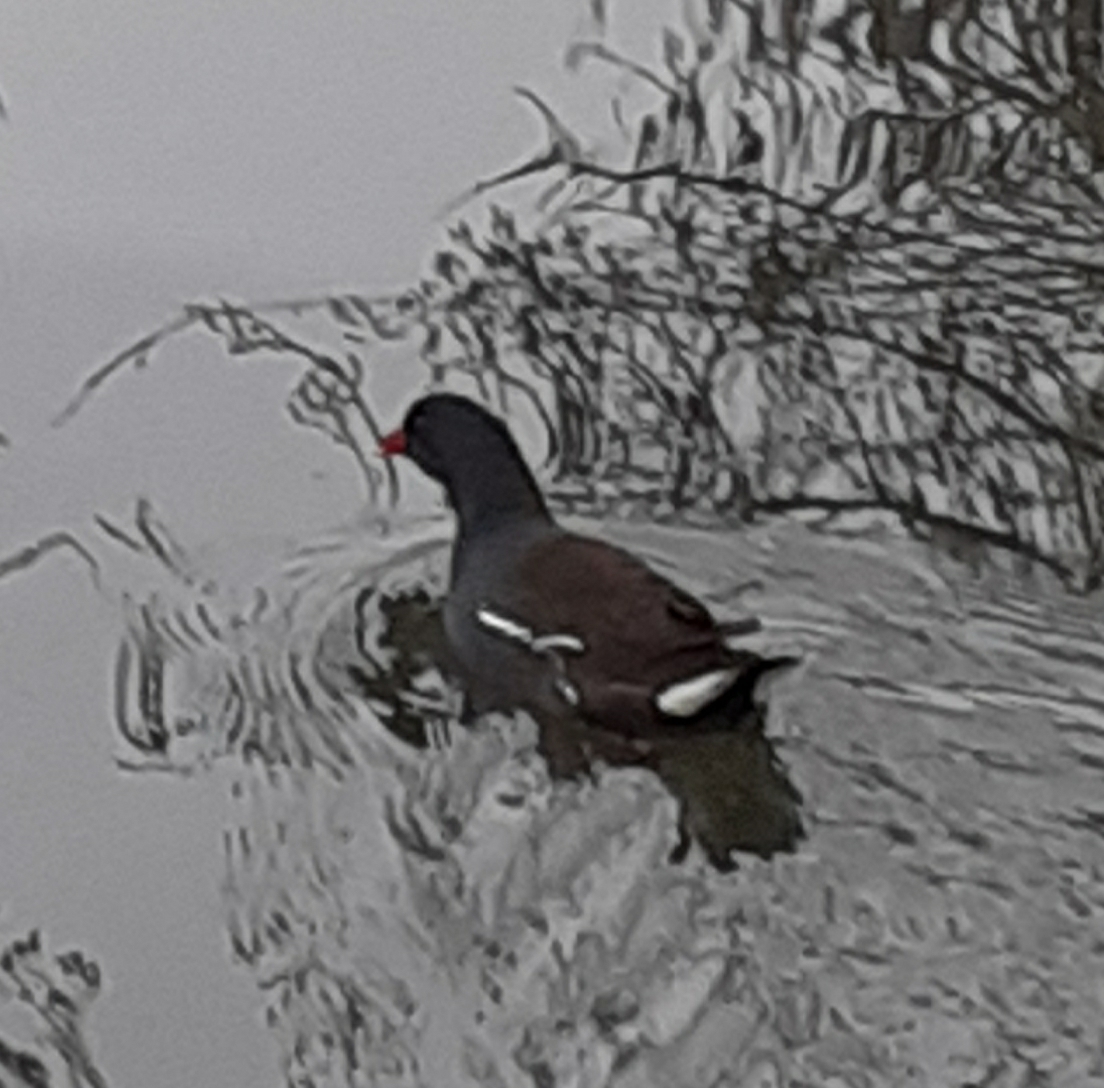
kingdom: Animalia
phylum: Chordata
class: Aves
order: Gruiformes
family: Rallidae
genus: Gallinula
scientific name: Gallinula chloropus
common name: Common moorhen
